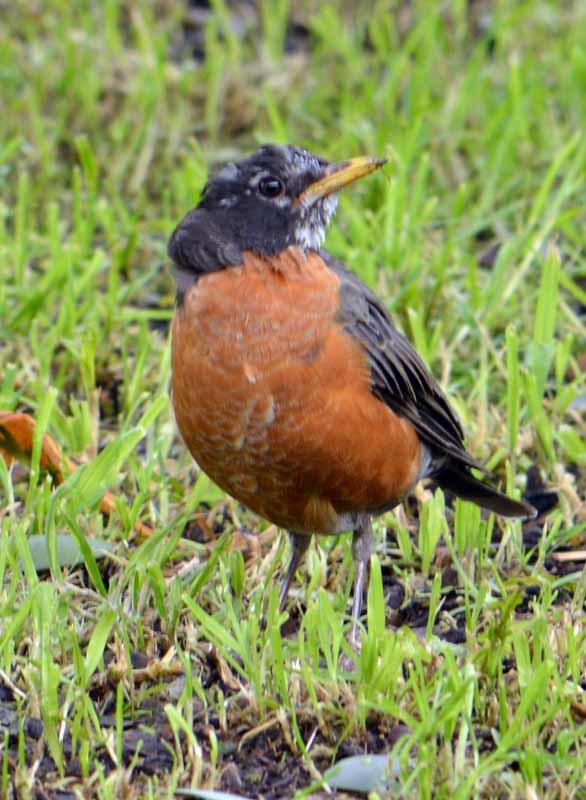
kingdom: Animalia
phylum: Chordata
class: Aves
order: Passeriformes
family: Turdidae
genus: Turdus
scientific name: Turdus migratorius
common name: American robin
